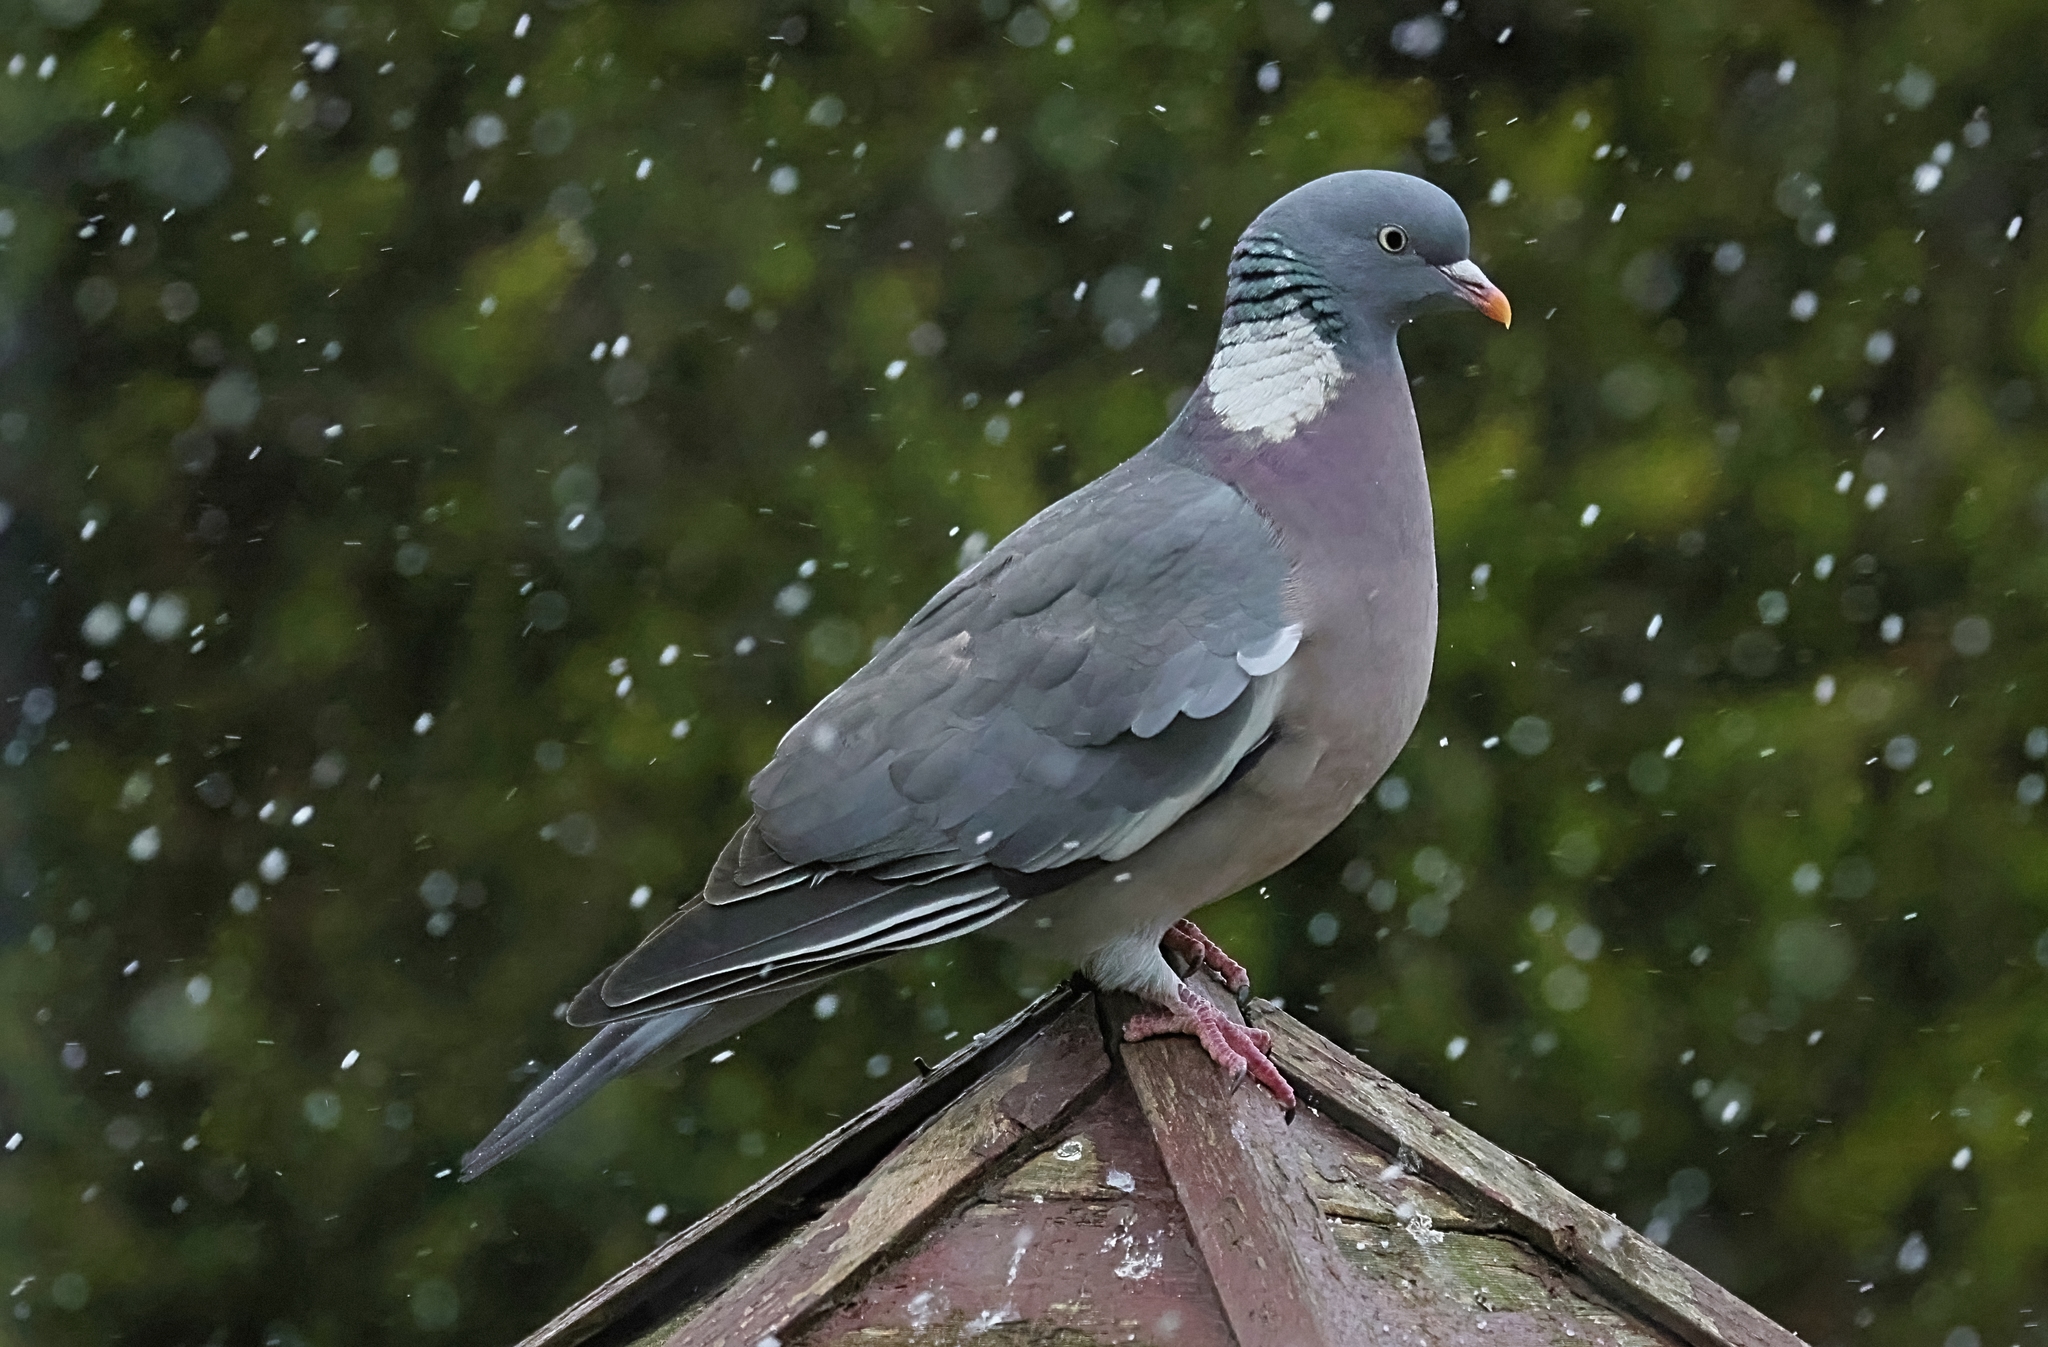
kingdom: Animalia
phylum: Chordata
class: Aves
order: Columbiformes
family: Columbidae
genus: Columba
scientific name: Columba palumbus
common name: Common wood pigeon
